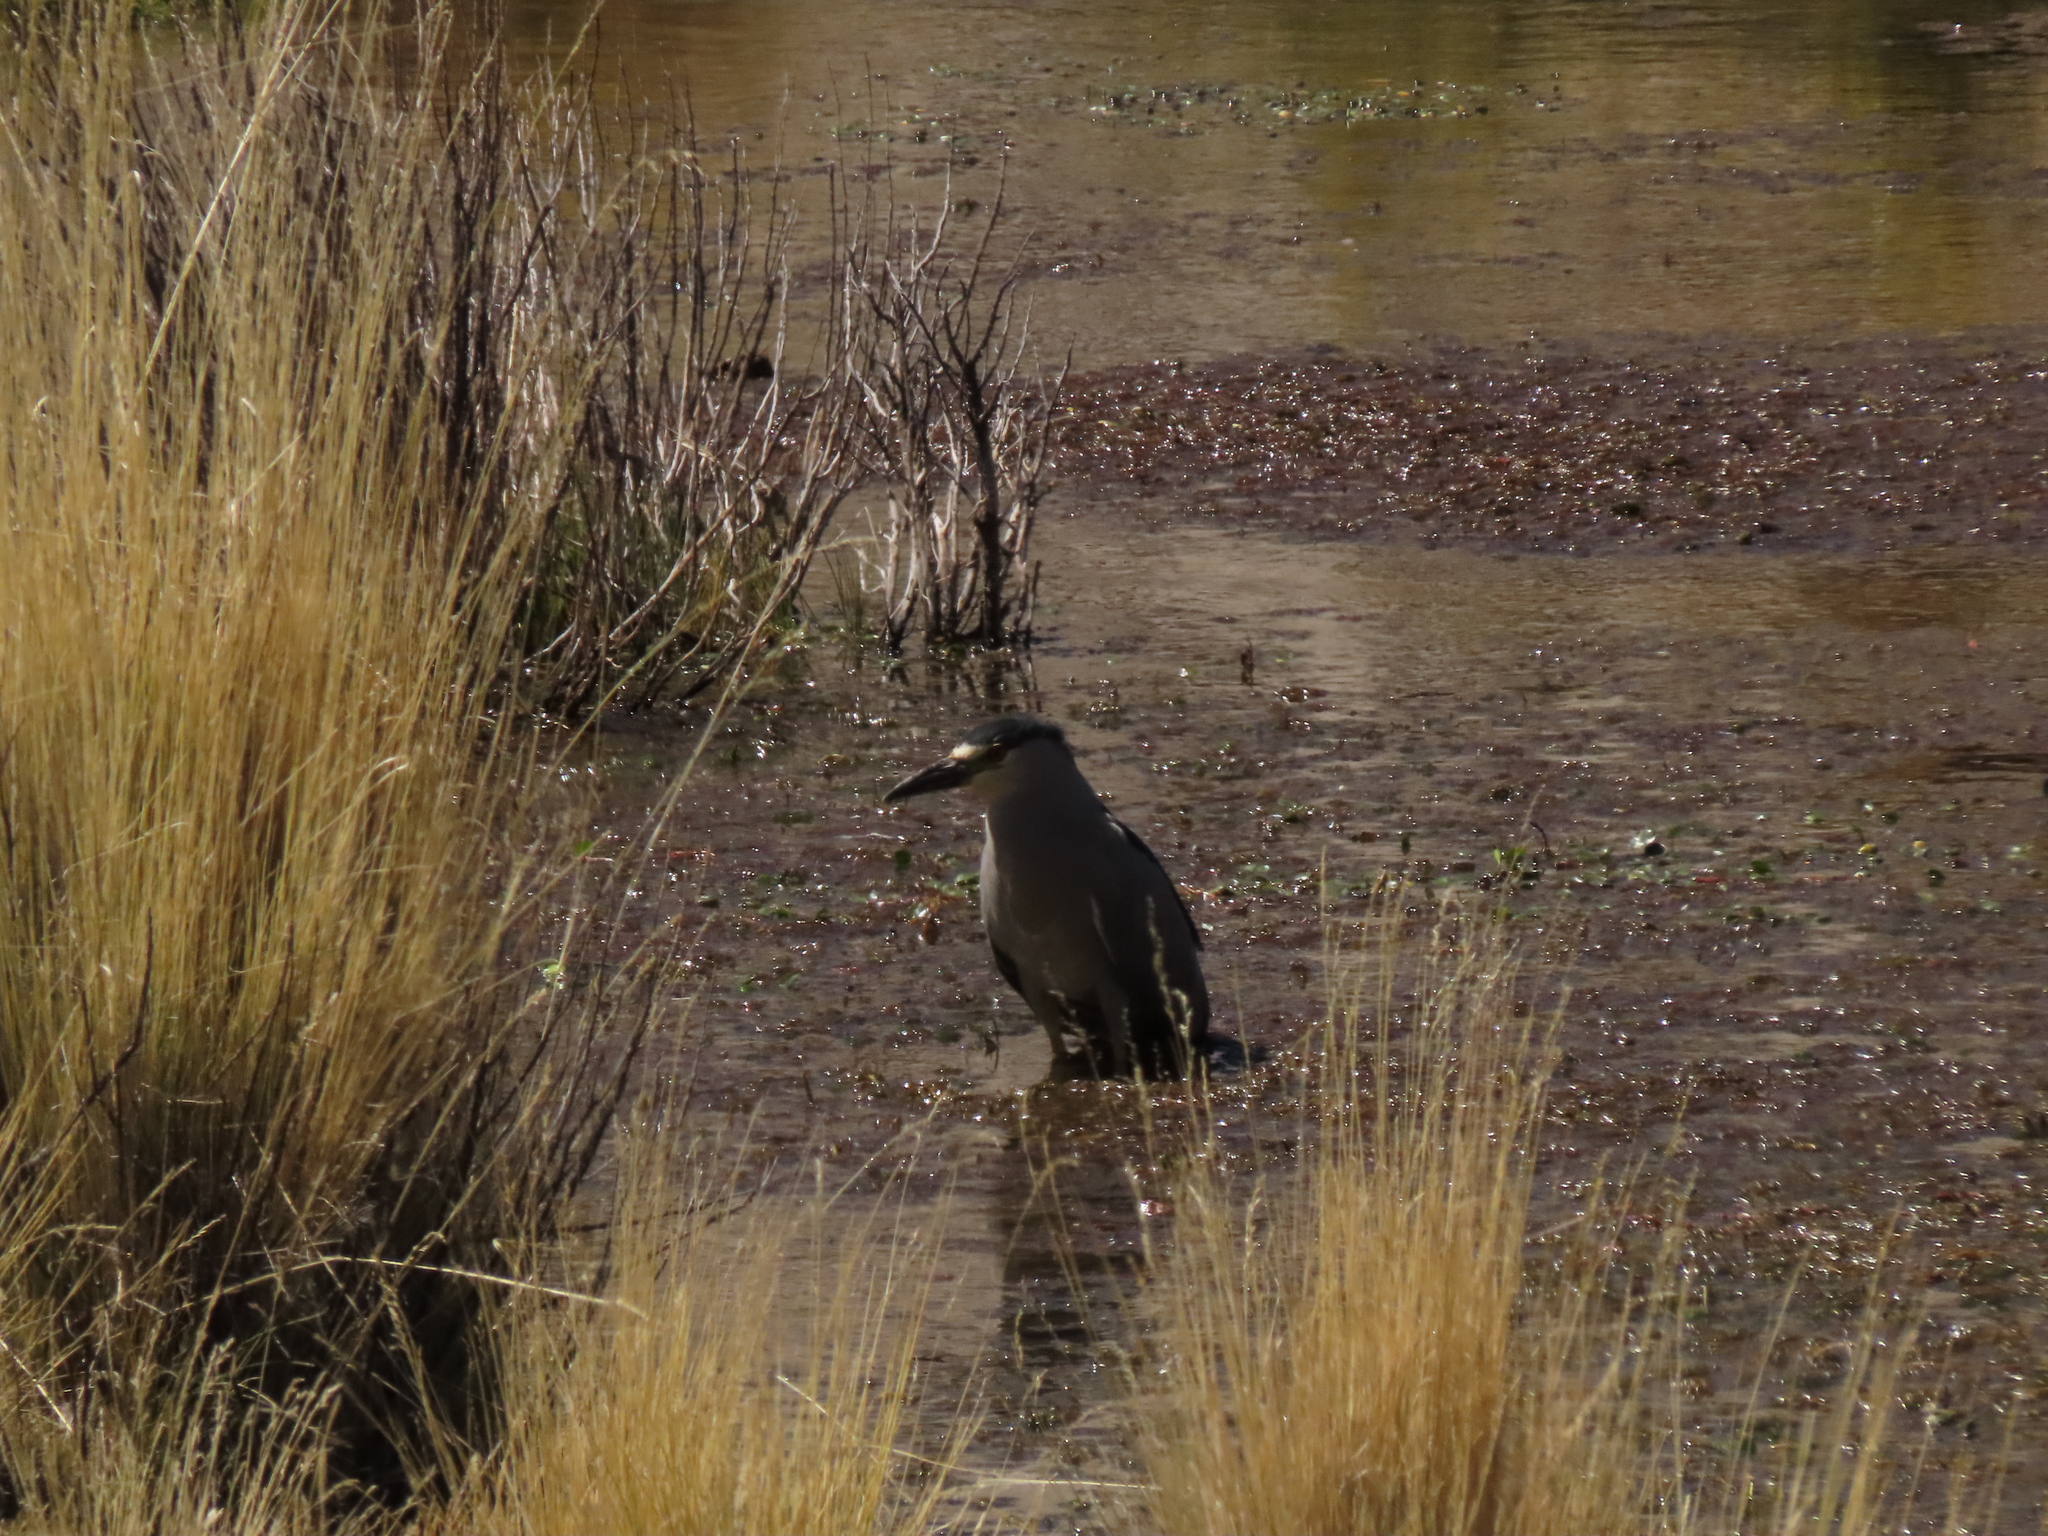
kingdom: Animalia
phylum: Chordata
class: Aves
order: Pelecaniformes
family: Ardeidae
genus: Nycticorax
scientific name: Nycticorax nycticorax
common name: Black-crowned night heron
